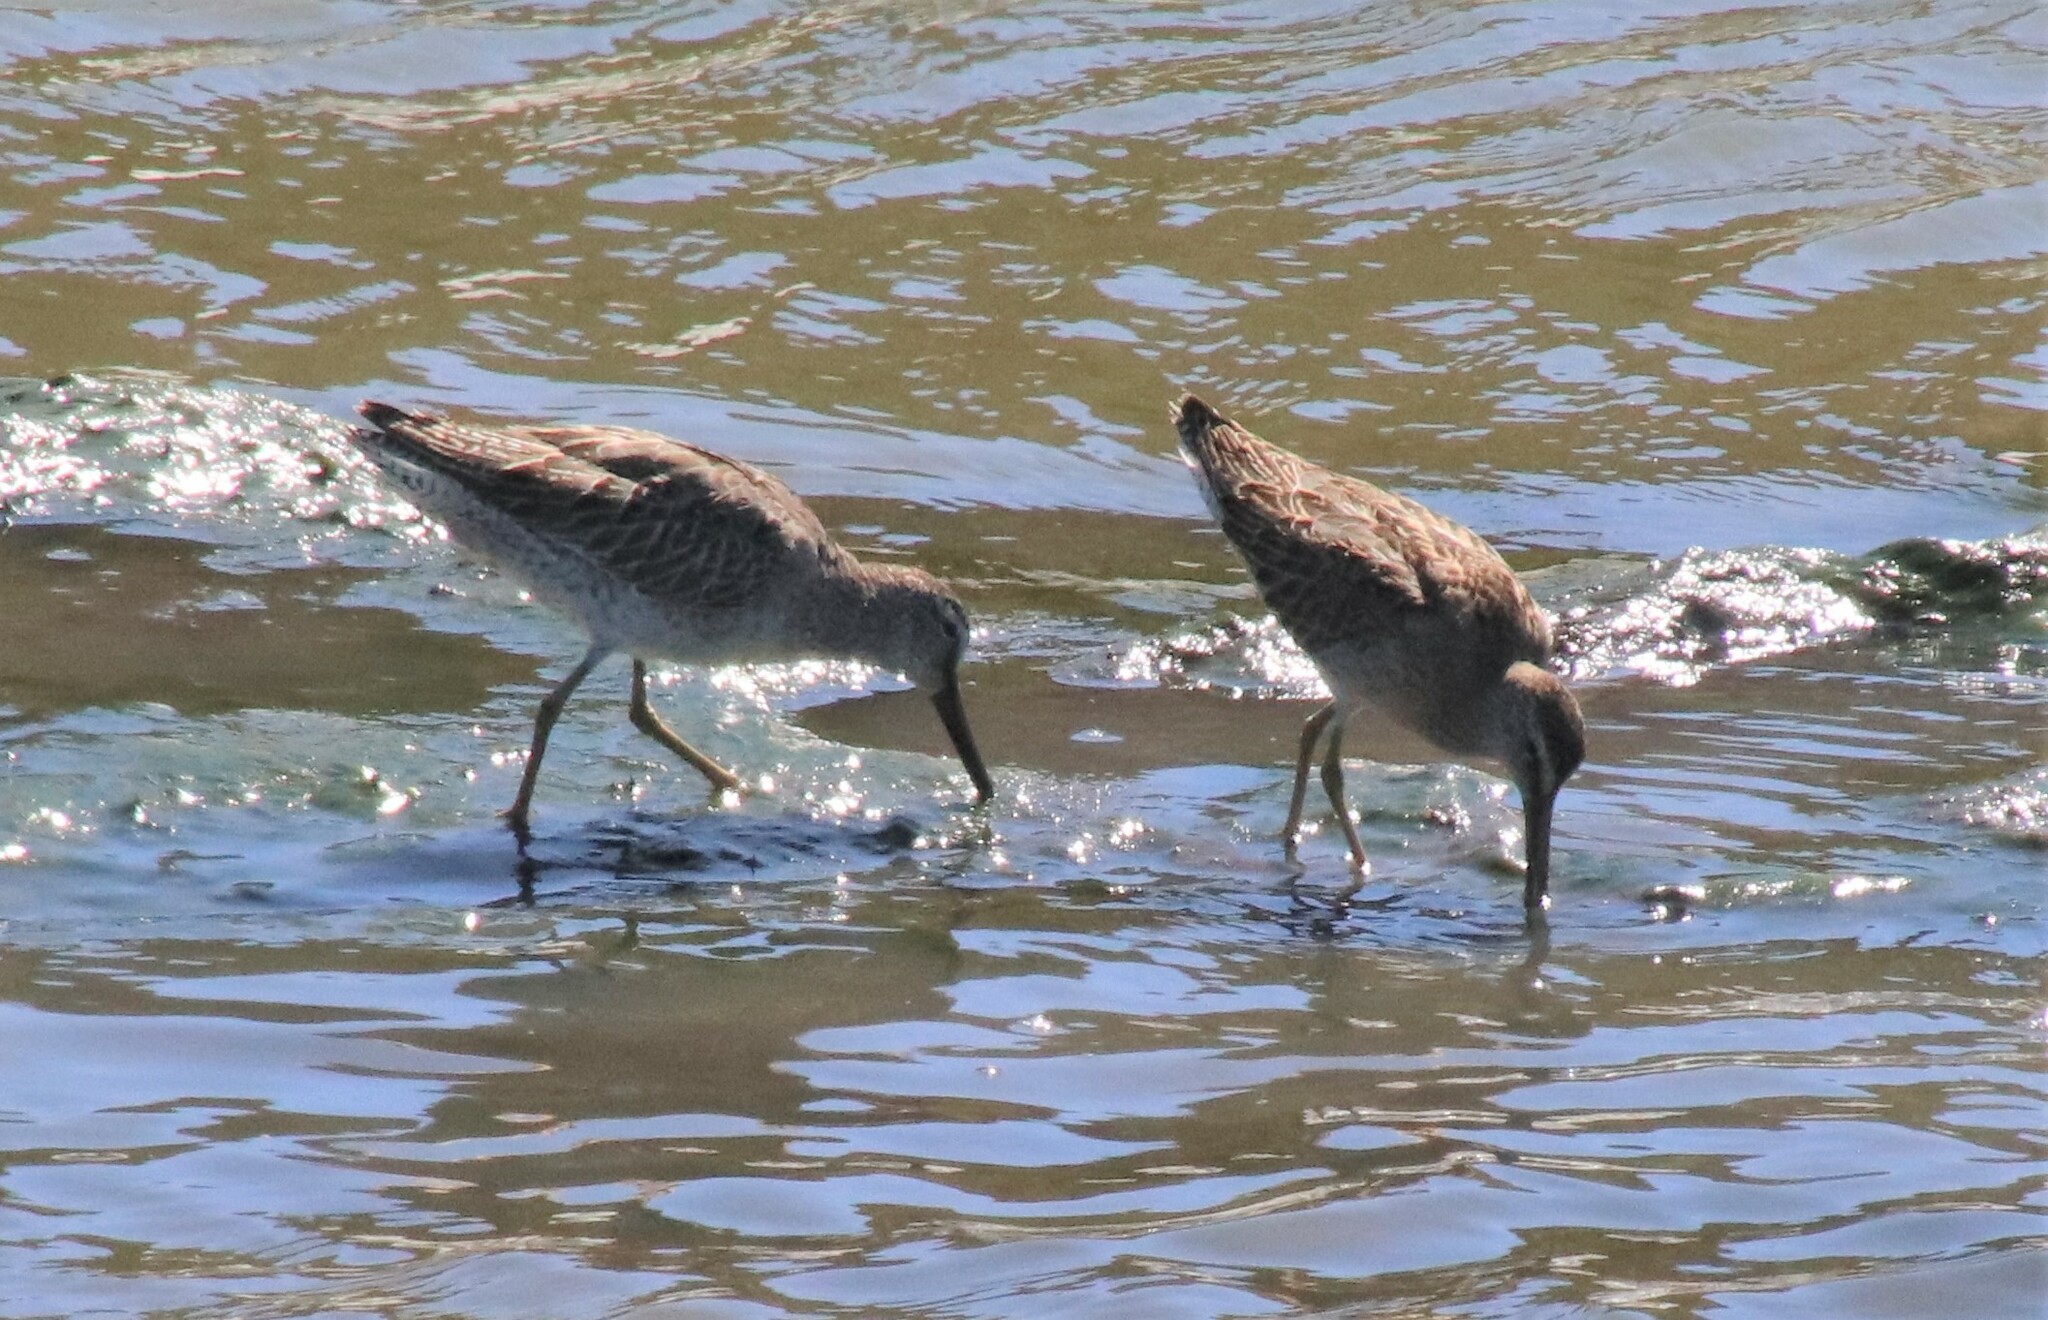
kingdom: Animalia
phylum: Chordata
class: Aves
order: Charadriiformes
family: Scolopacidae
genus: Limnodromus
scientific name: Limnodromus griseus
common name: Short-billed dowitcher
